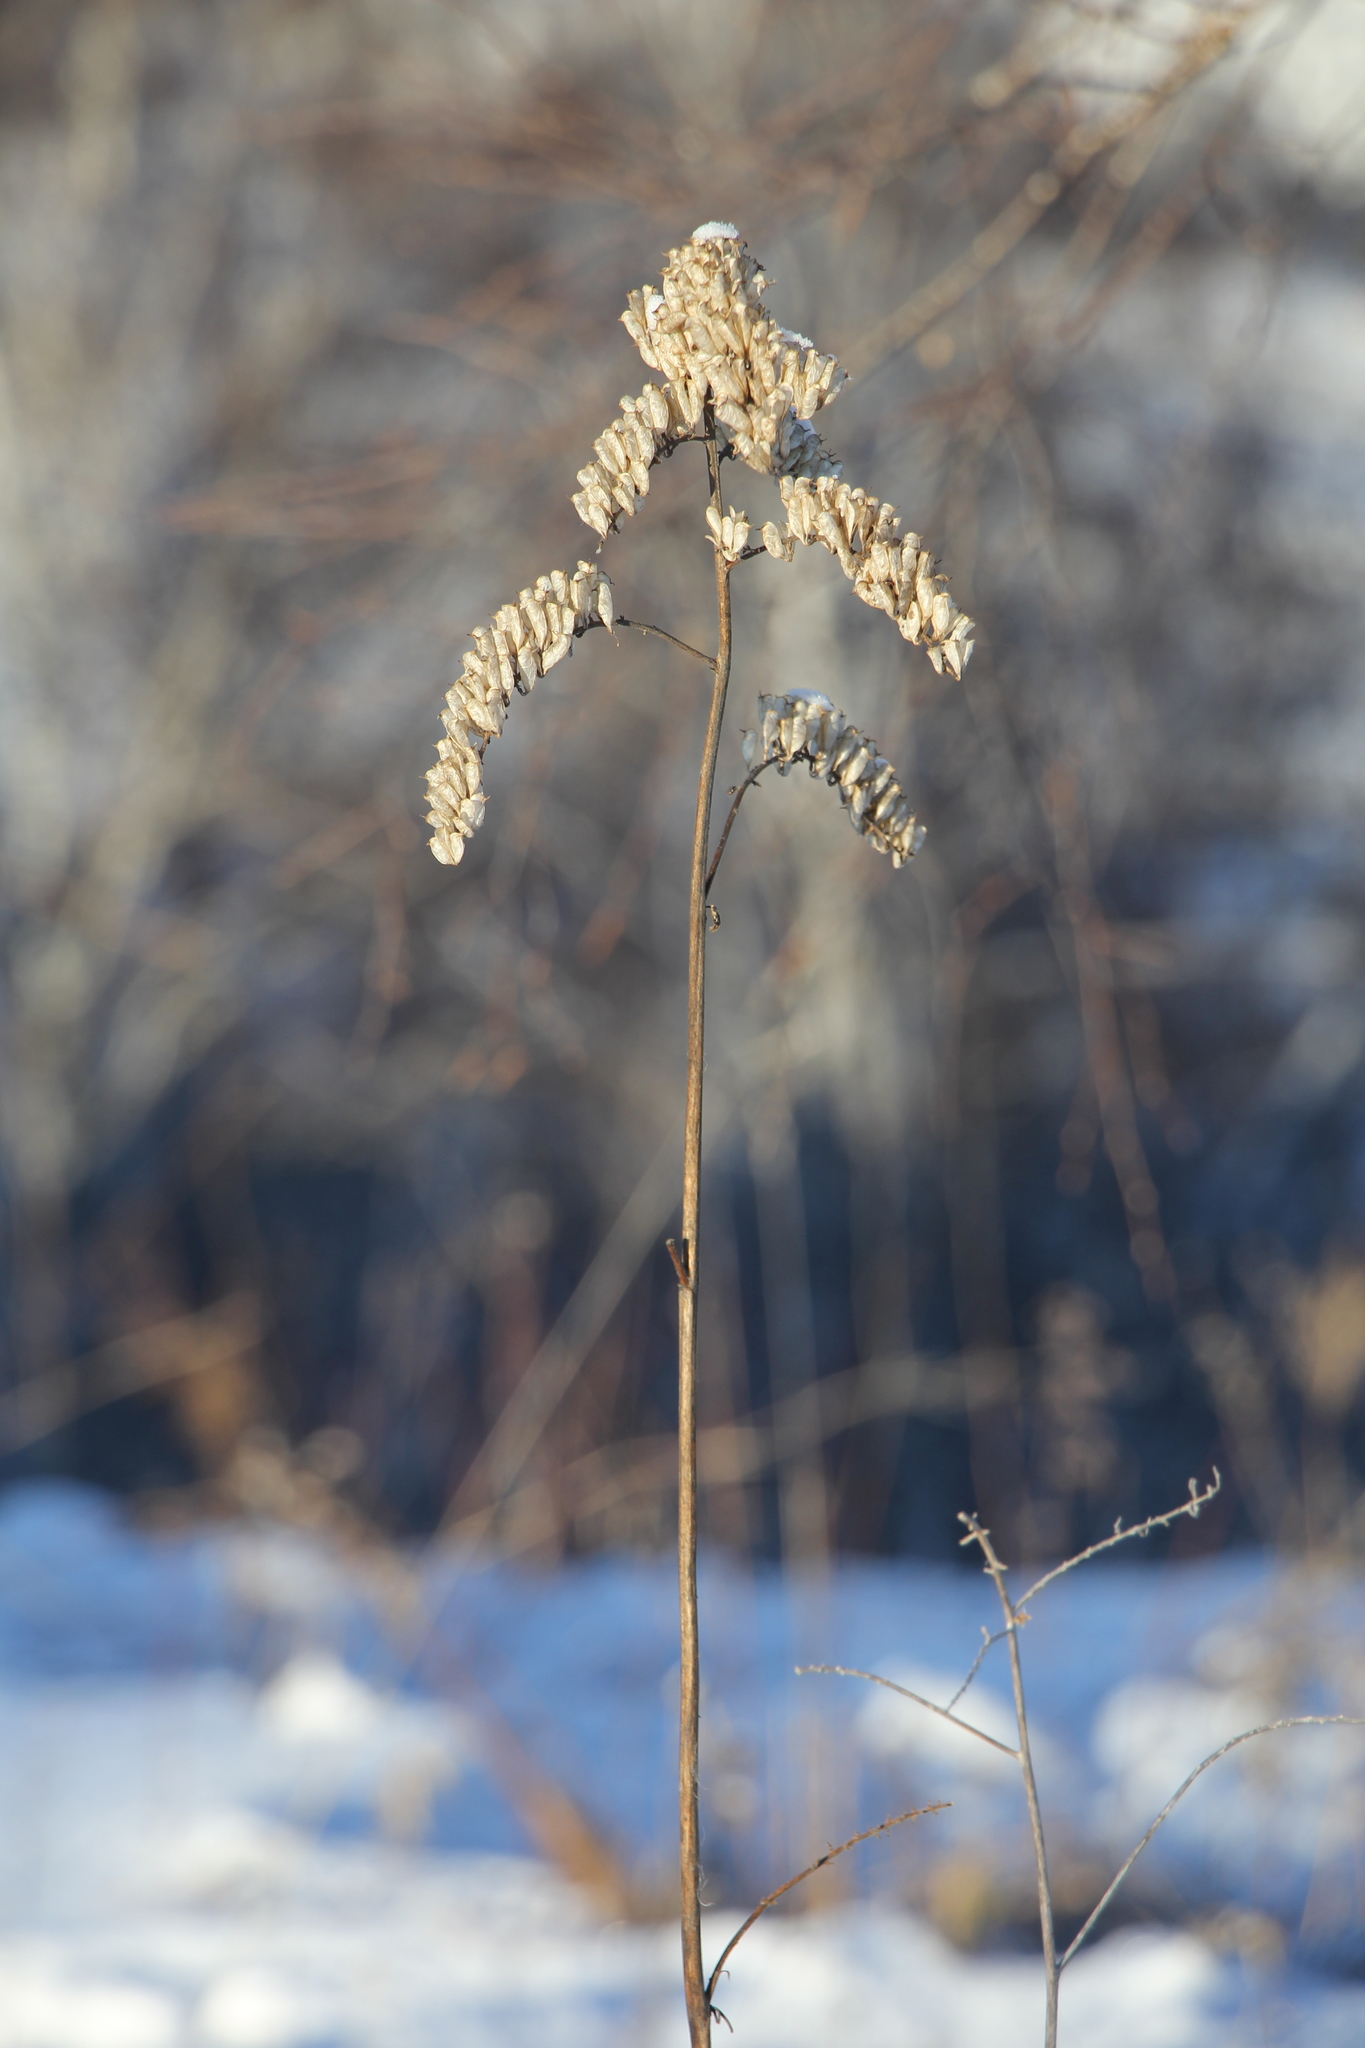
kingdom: Plantae
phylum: Tracheophyta
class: Magnoliopsida
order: Ranunculales
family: Ranunculaceae
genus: Actaea
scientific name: Actaea cimicifuga
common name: Chinese cimicifuga
